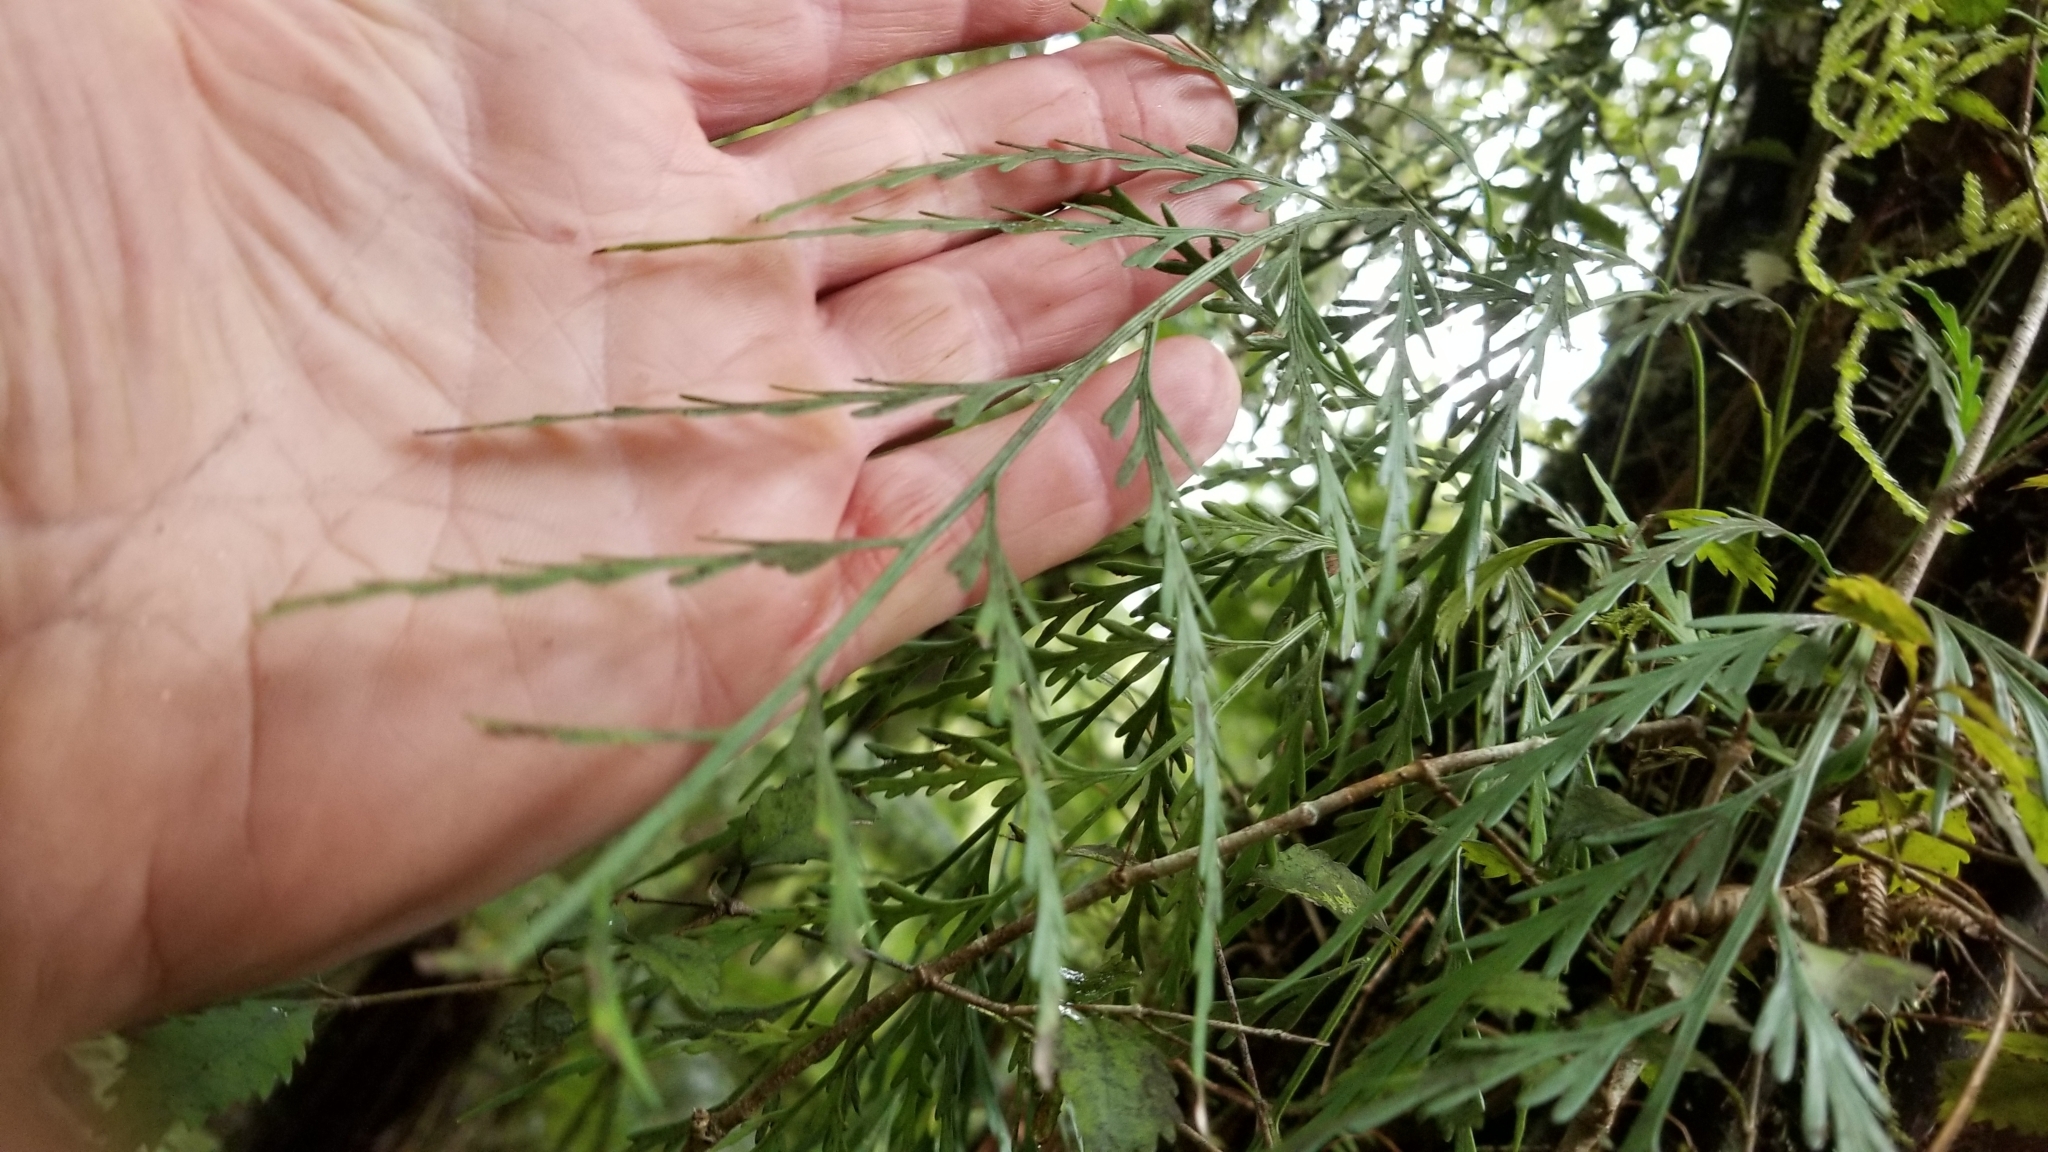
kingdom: Plantae
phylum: Tracheophyta
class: Polypodiopsida
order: Polypodiales
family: Aspleniaceae
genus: Asplenium
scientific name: Asplenium flaccidum
